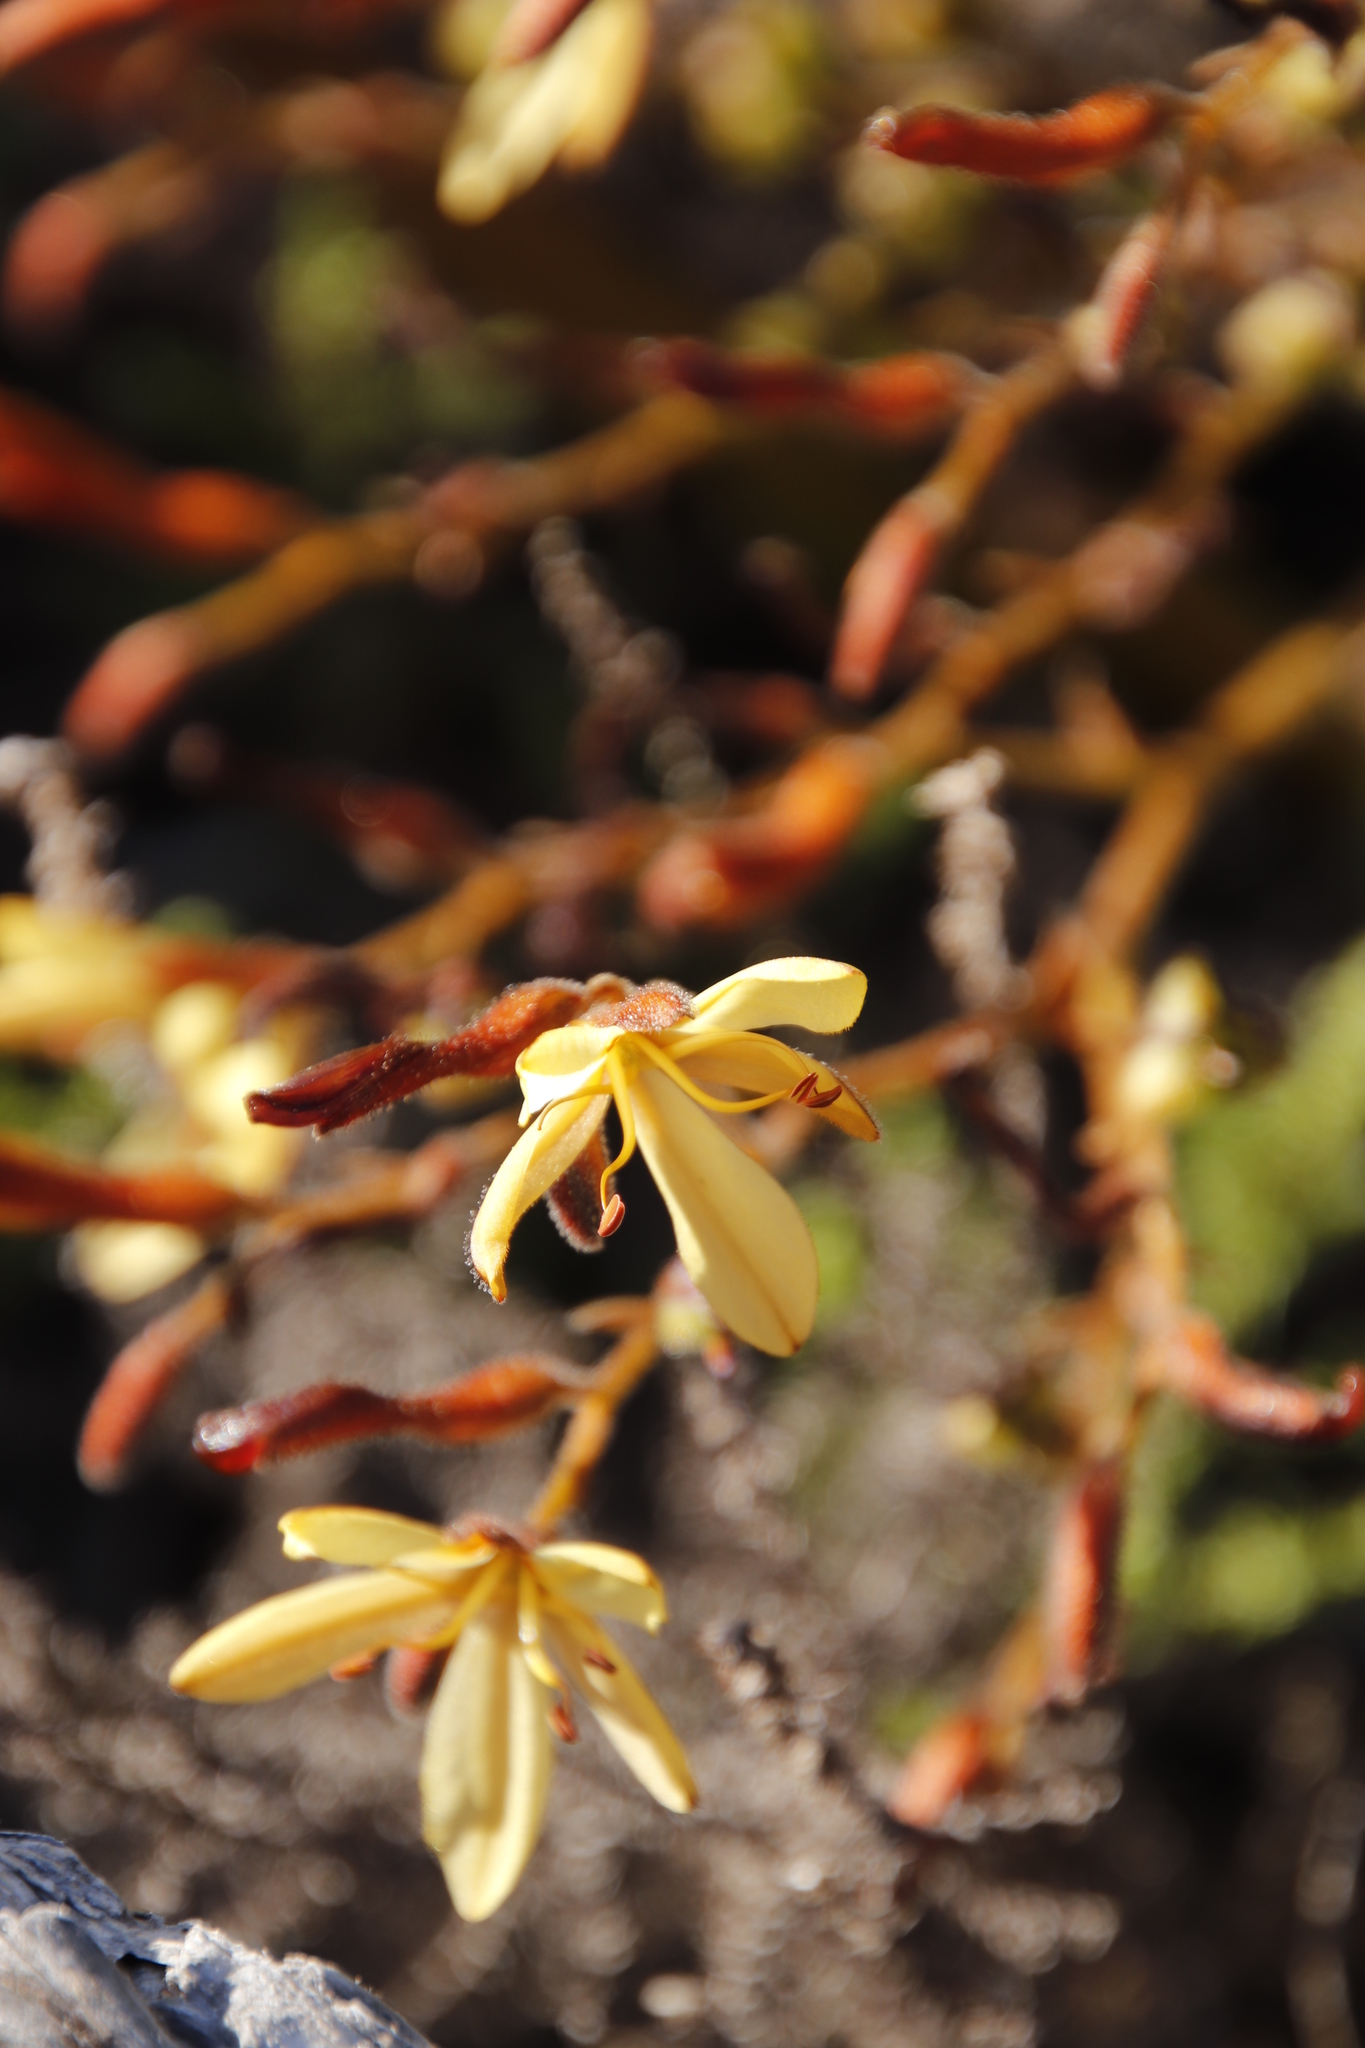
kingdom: Plantae
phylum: Tracheophyta
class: Liliopsida
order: Commelinales
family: Haemodoraceae
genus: Wachendorfia
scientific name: Wachendorfia paniculata
